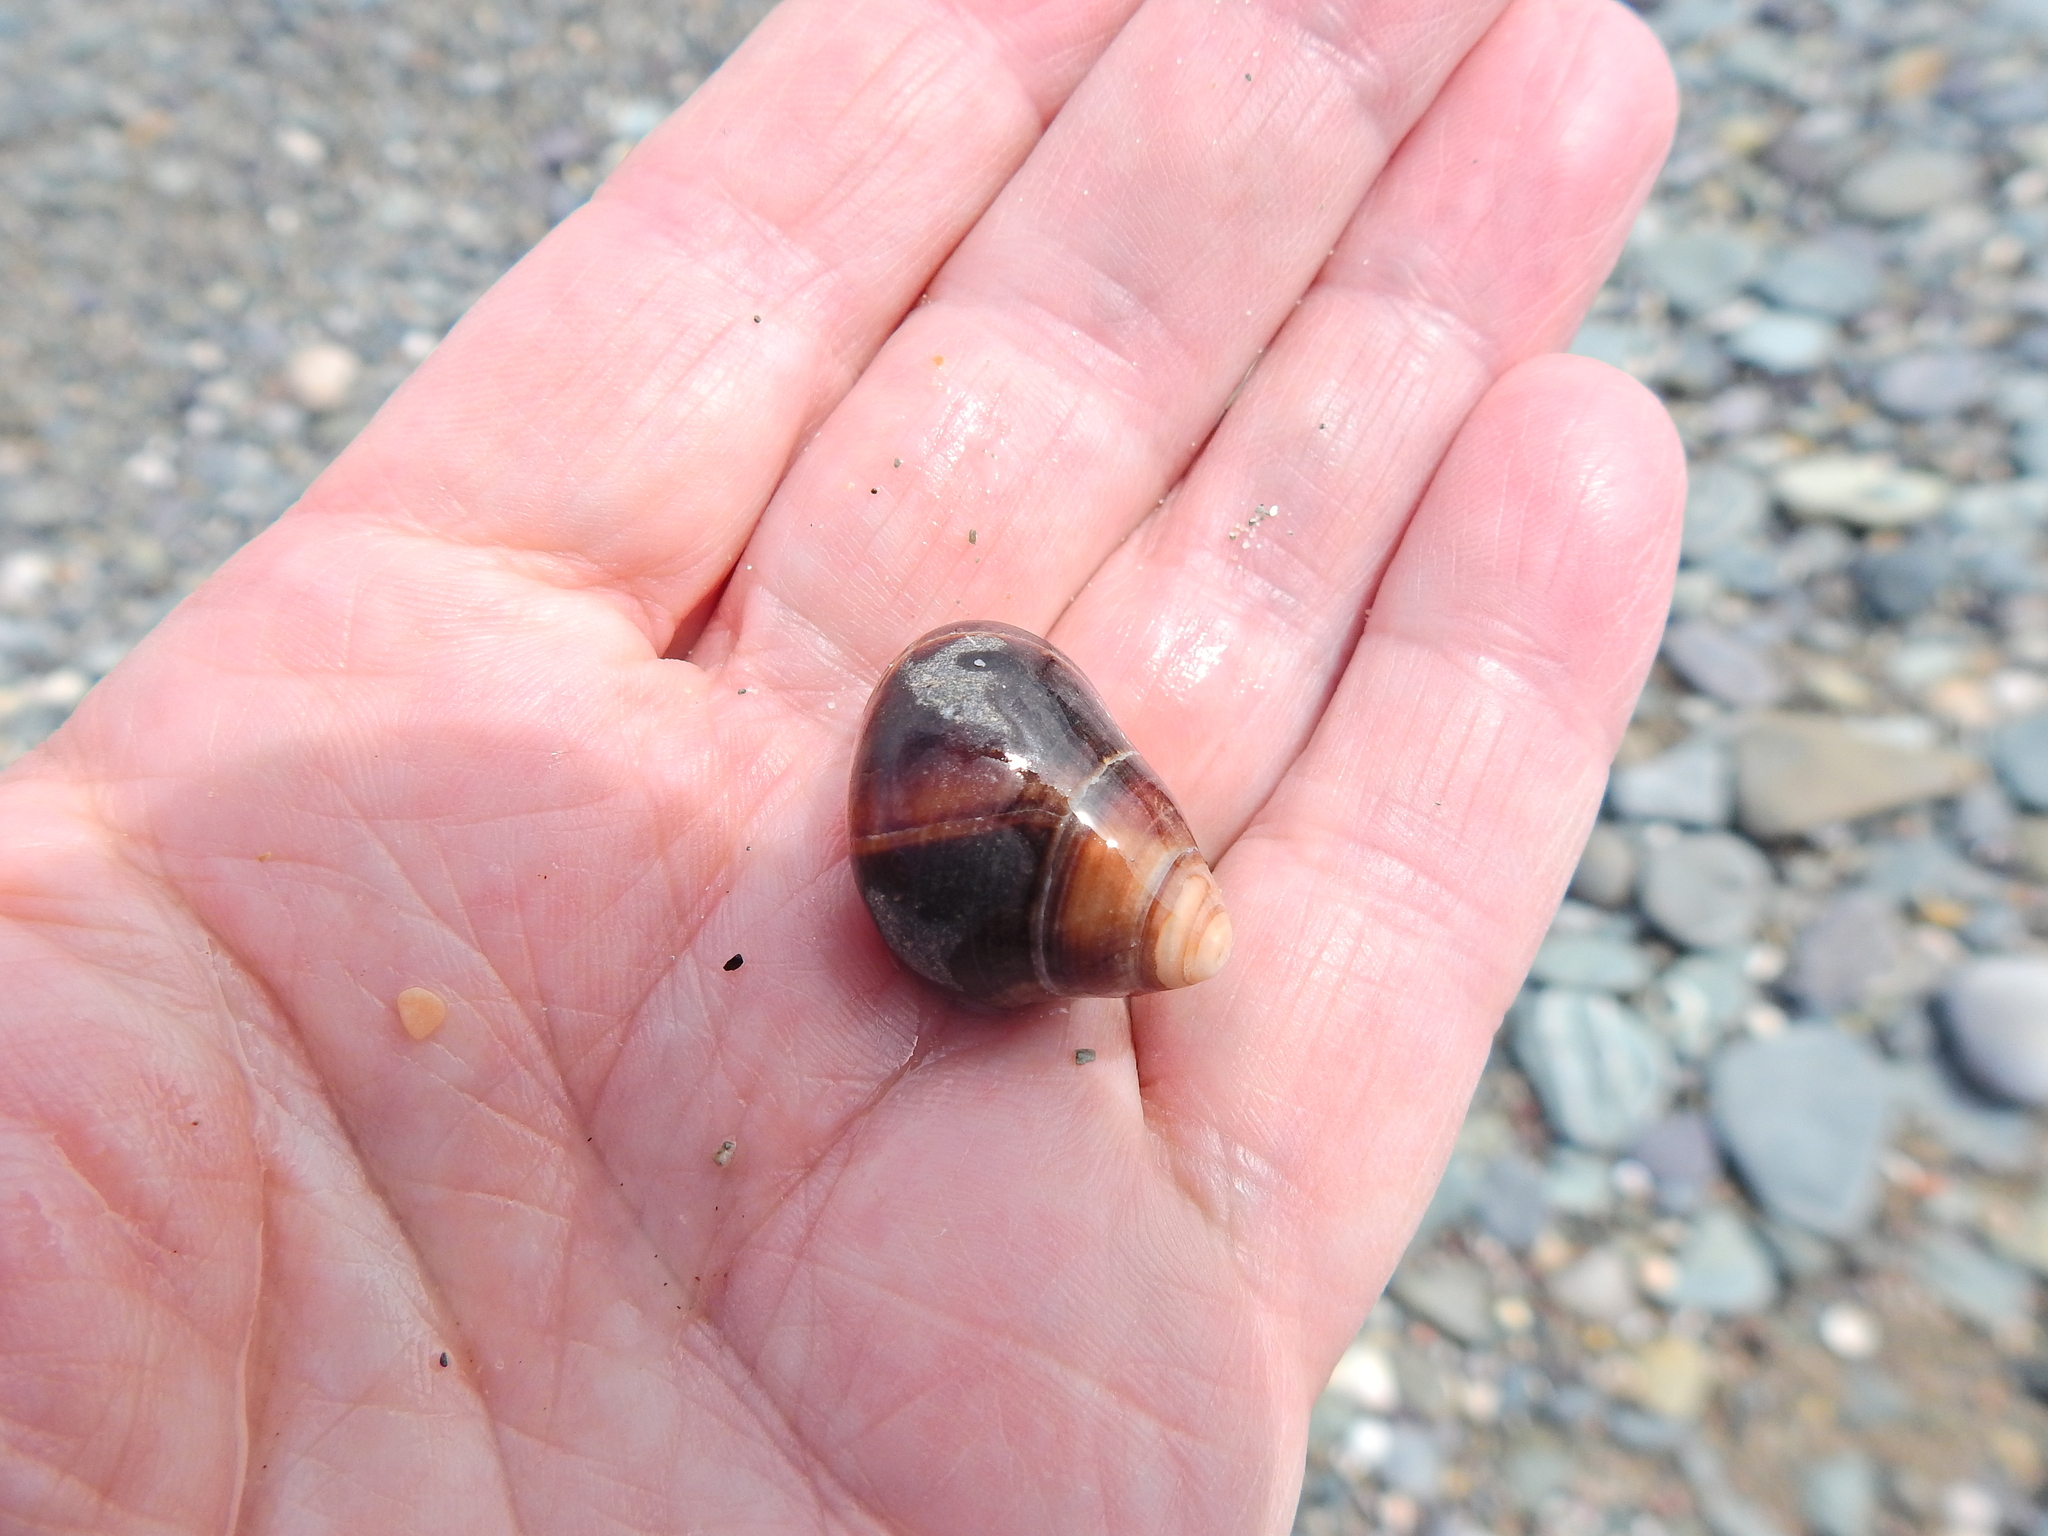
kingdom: Animalia
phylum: Mollusca
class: Gastropoda
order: Littorinimorpha
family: Littorinidae
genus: Littorina
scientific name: Littorina littorea
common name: Common periwinkle
